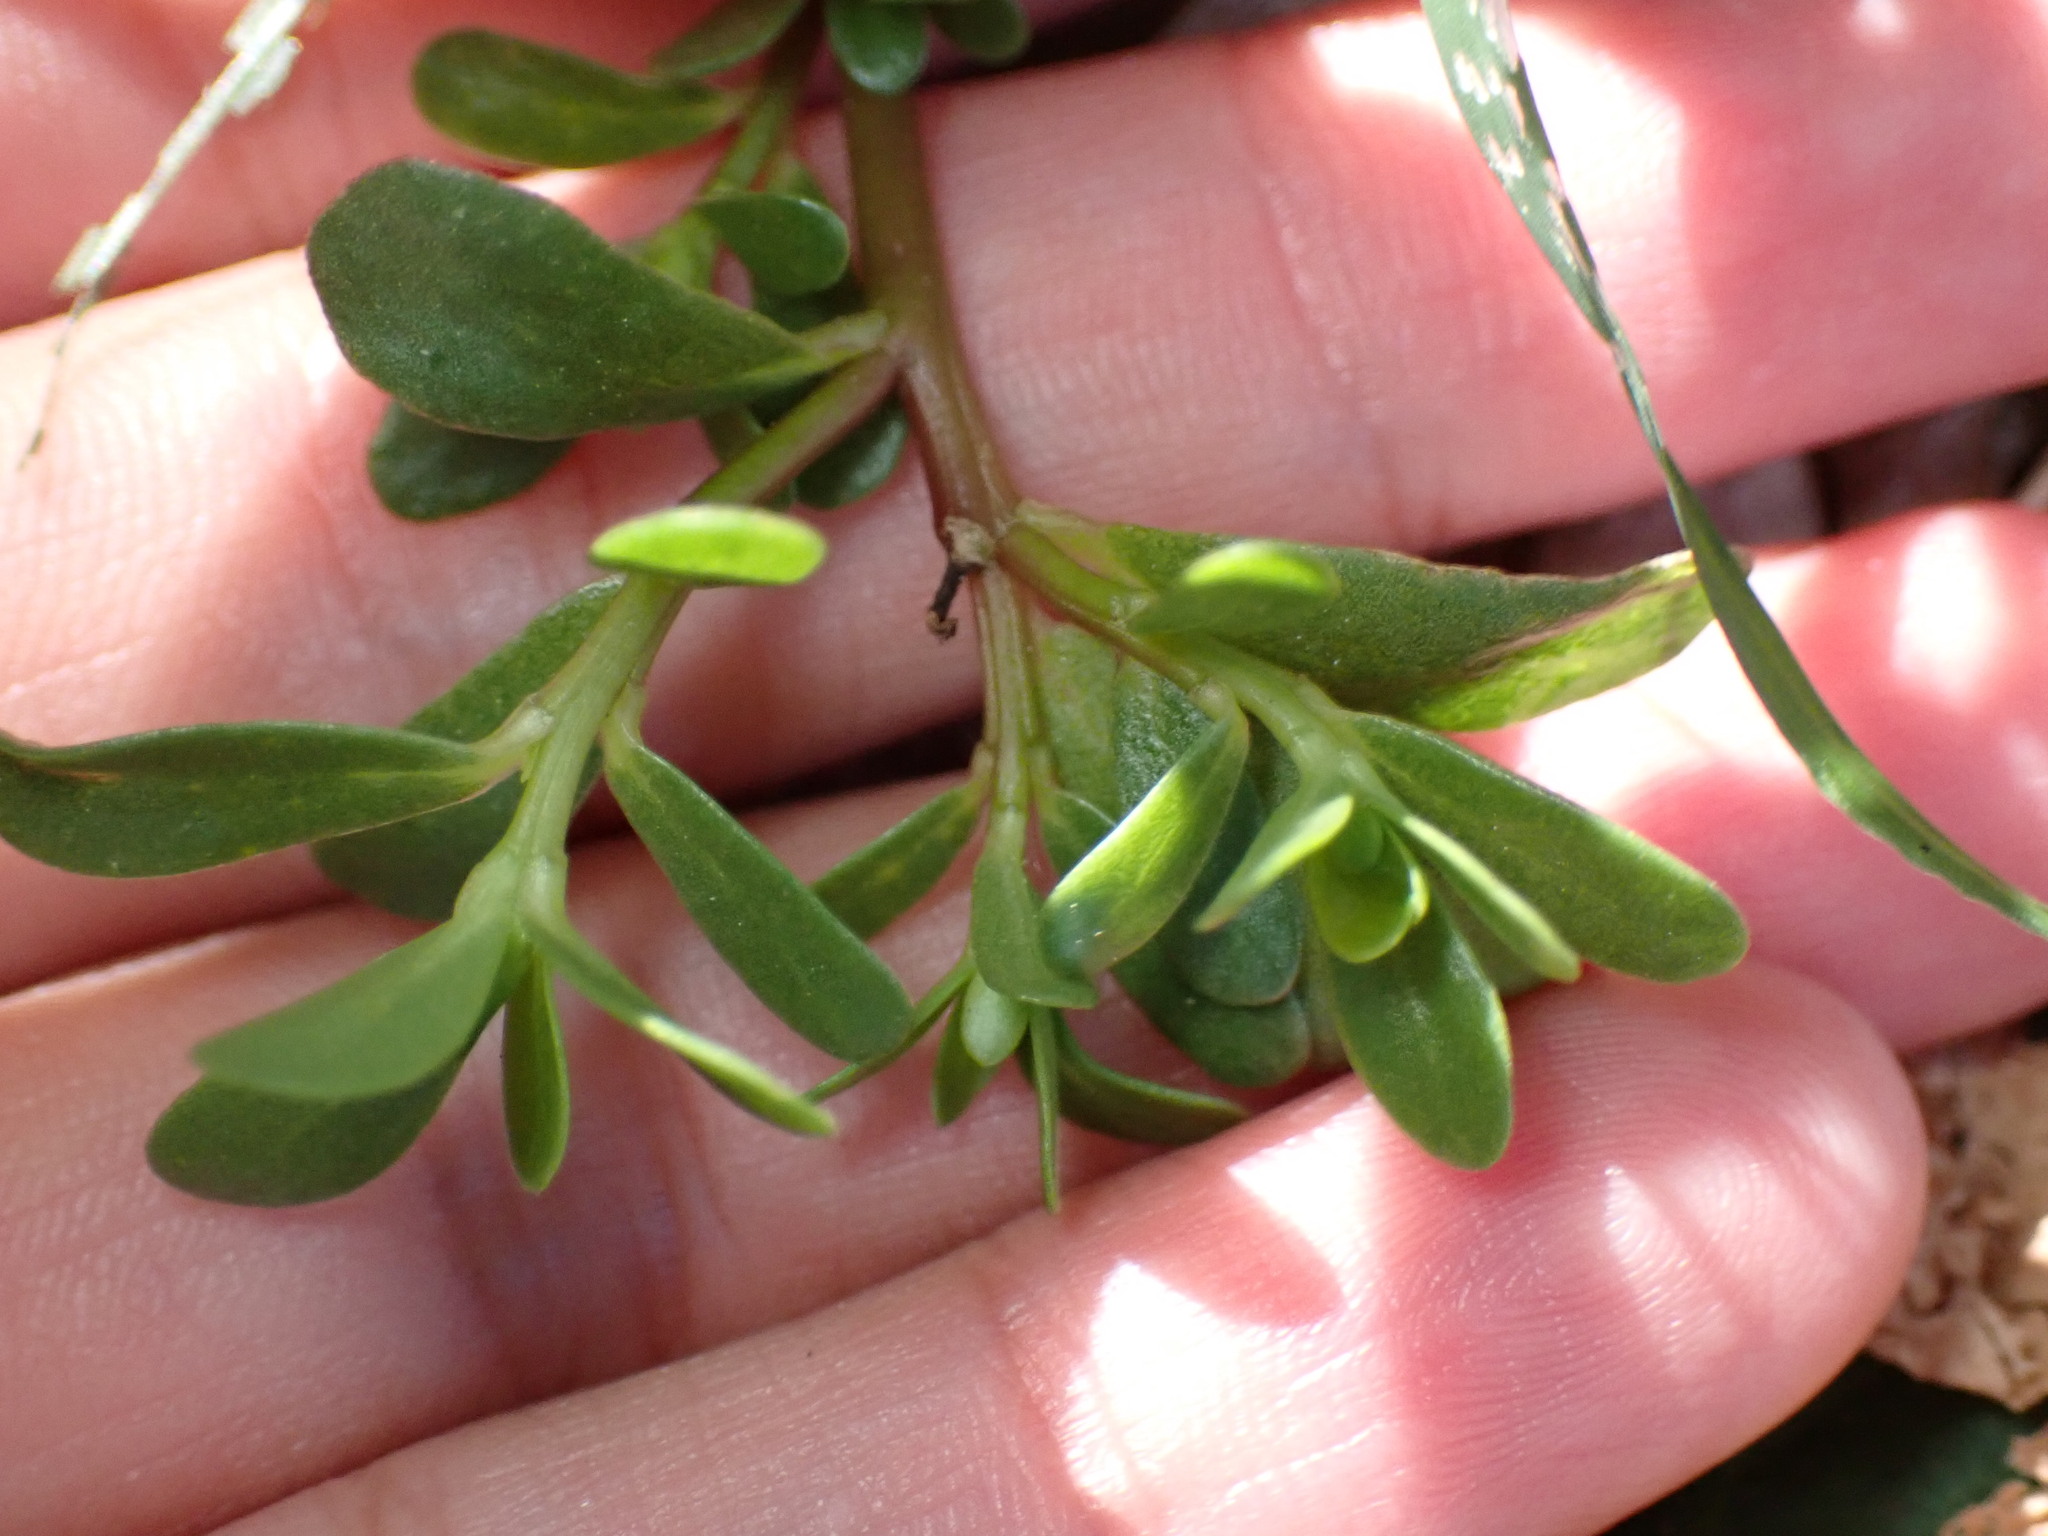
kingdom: Plantae
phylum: Tracheophyta
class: Magnoliopsida
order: Caryophyllales
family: Portulacaceae
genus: Portulaca
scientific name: Portulaca oleracea
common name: Common purslane
